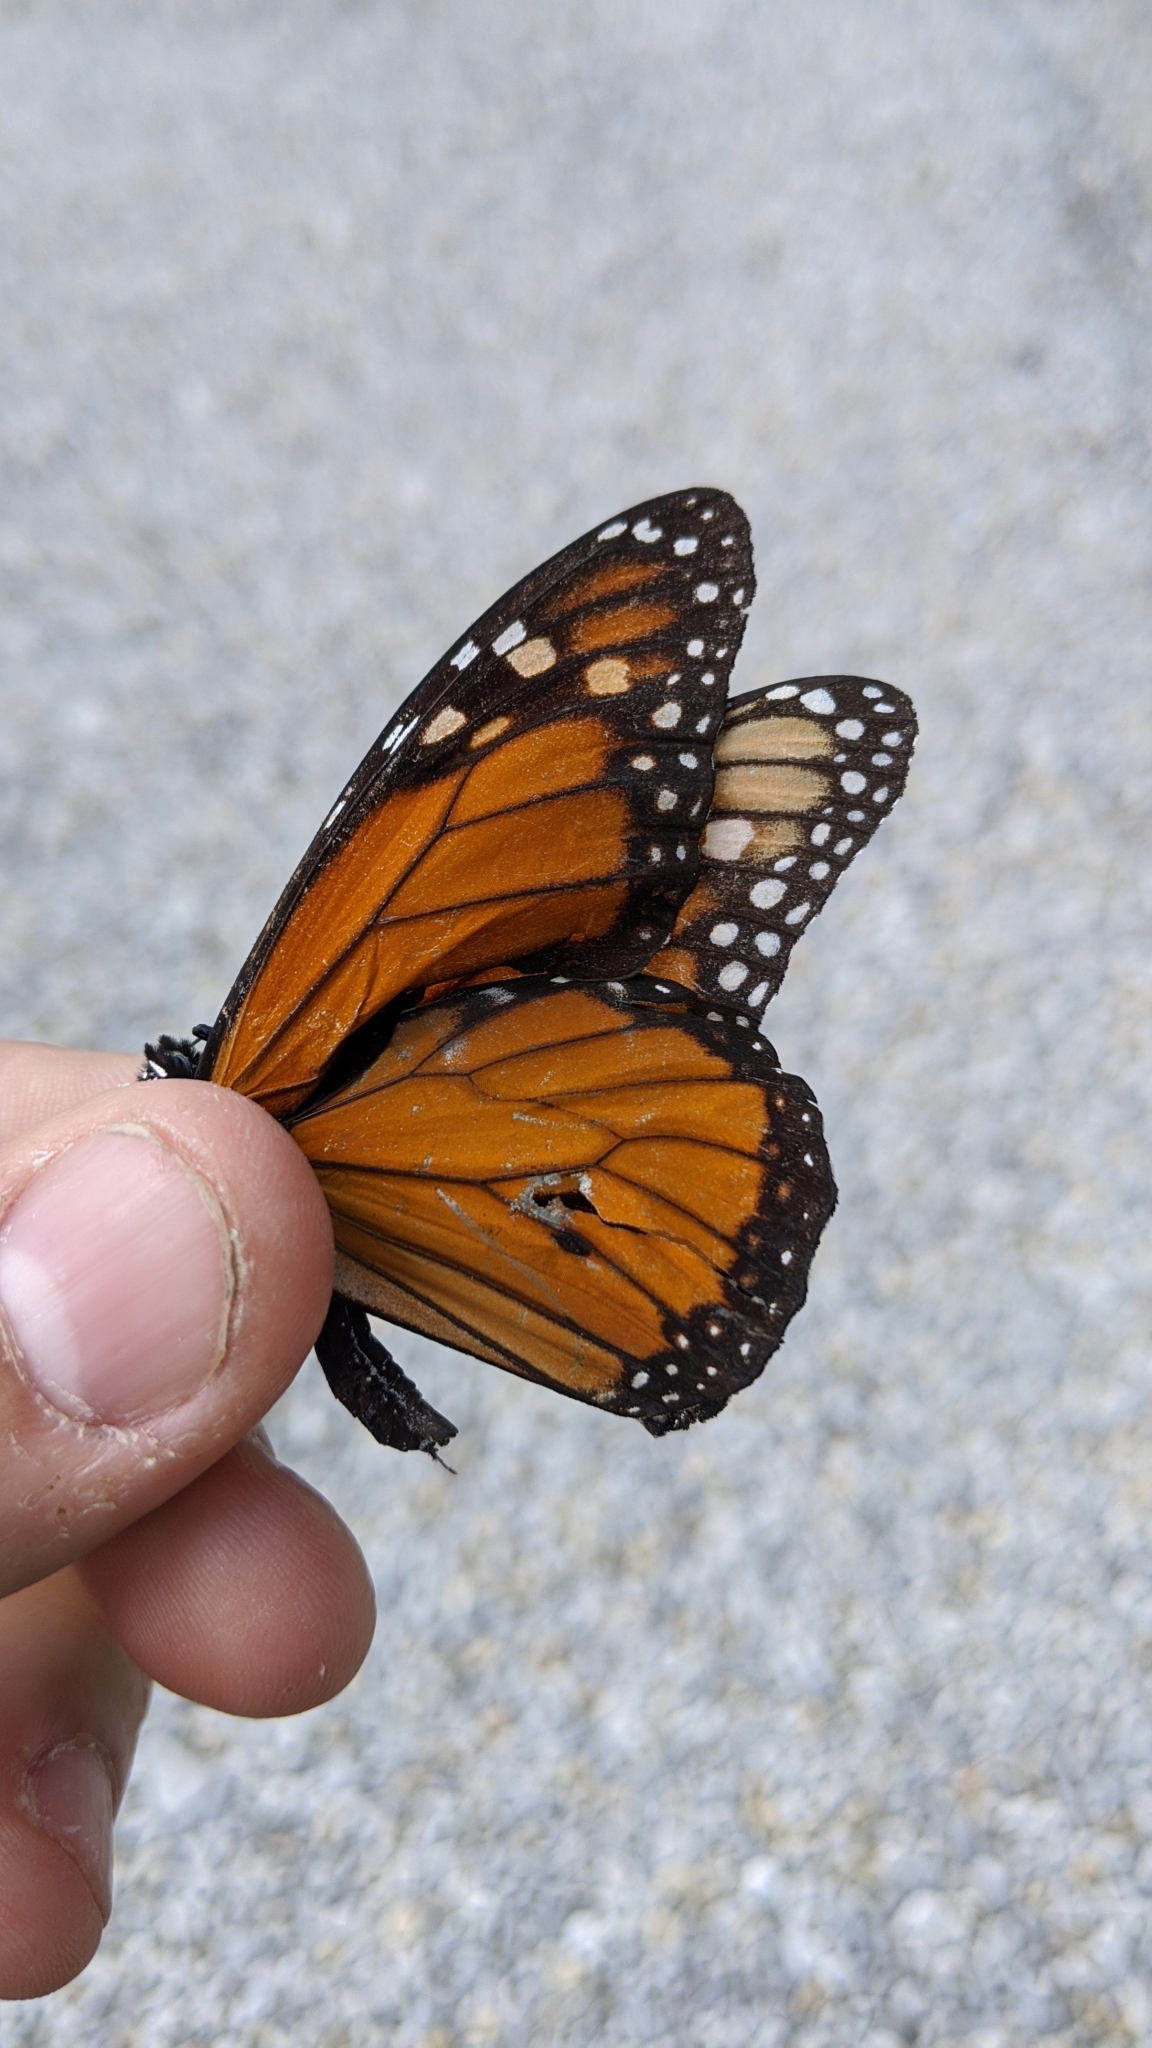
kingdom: Animalia
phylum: Arthropoda
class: Insecta
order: Lepidoptera
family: Nymphalidae
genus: Danaus
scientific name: Danaus plexippus
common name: Monarch
